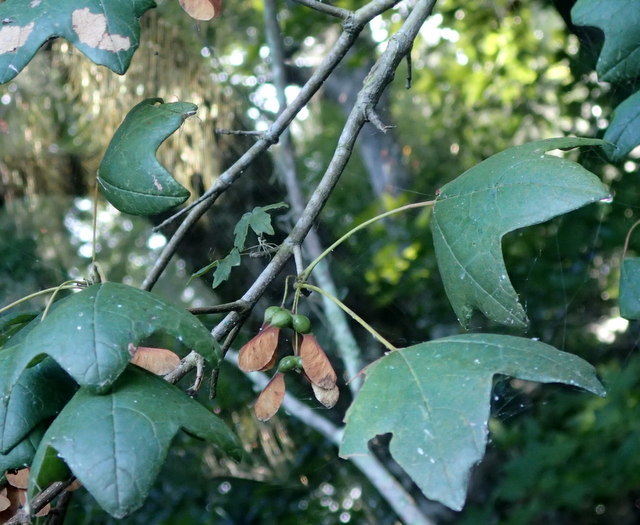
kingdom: Plantae
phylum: Tracheophyta
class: Magnoliopsida
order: Sapindales
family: Sapindaceae
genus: Acer
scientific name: Acer floridanum
